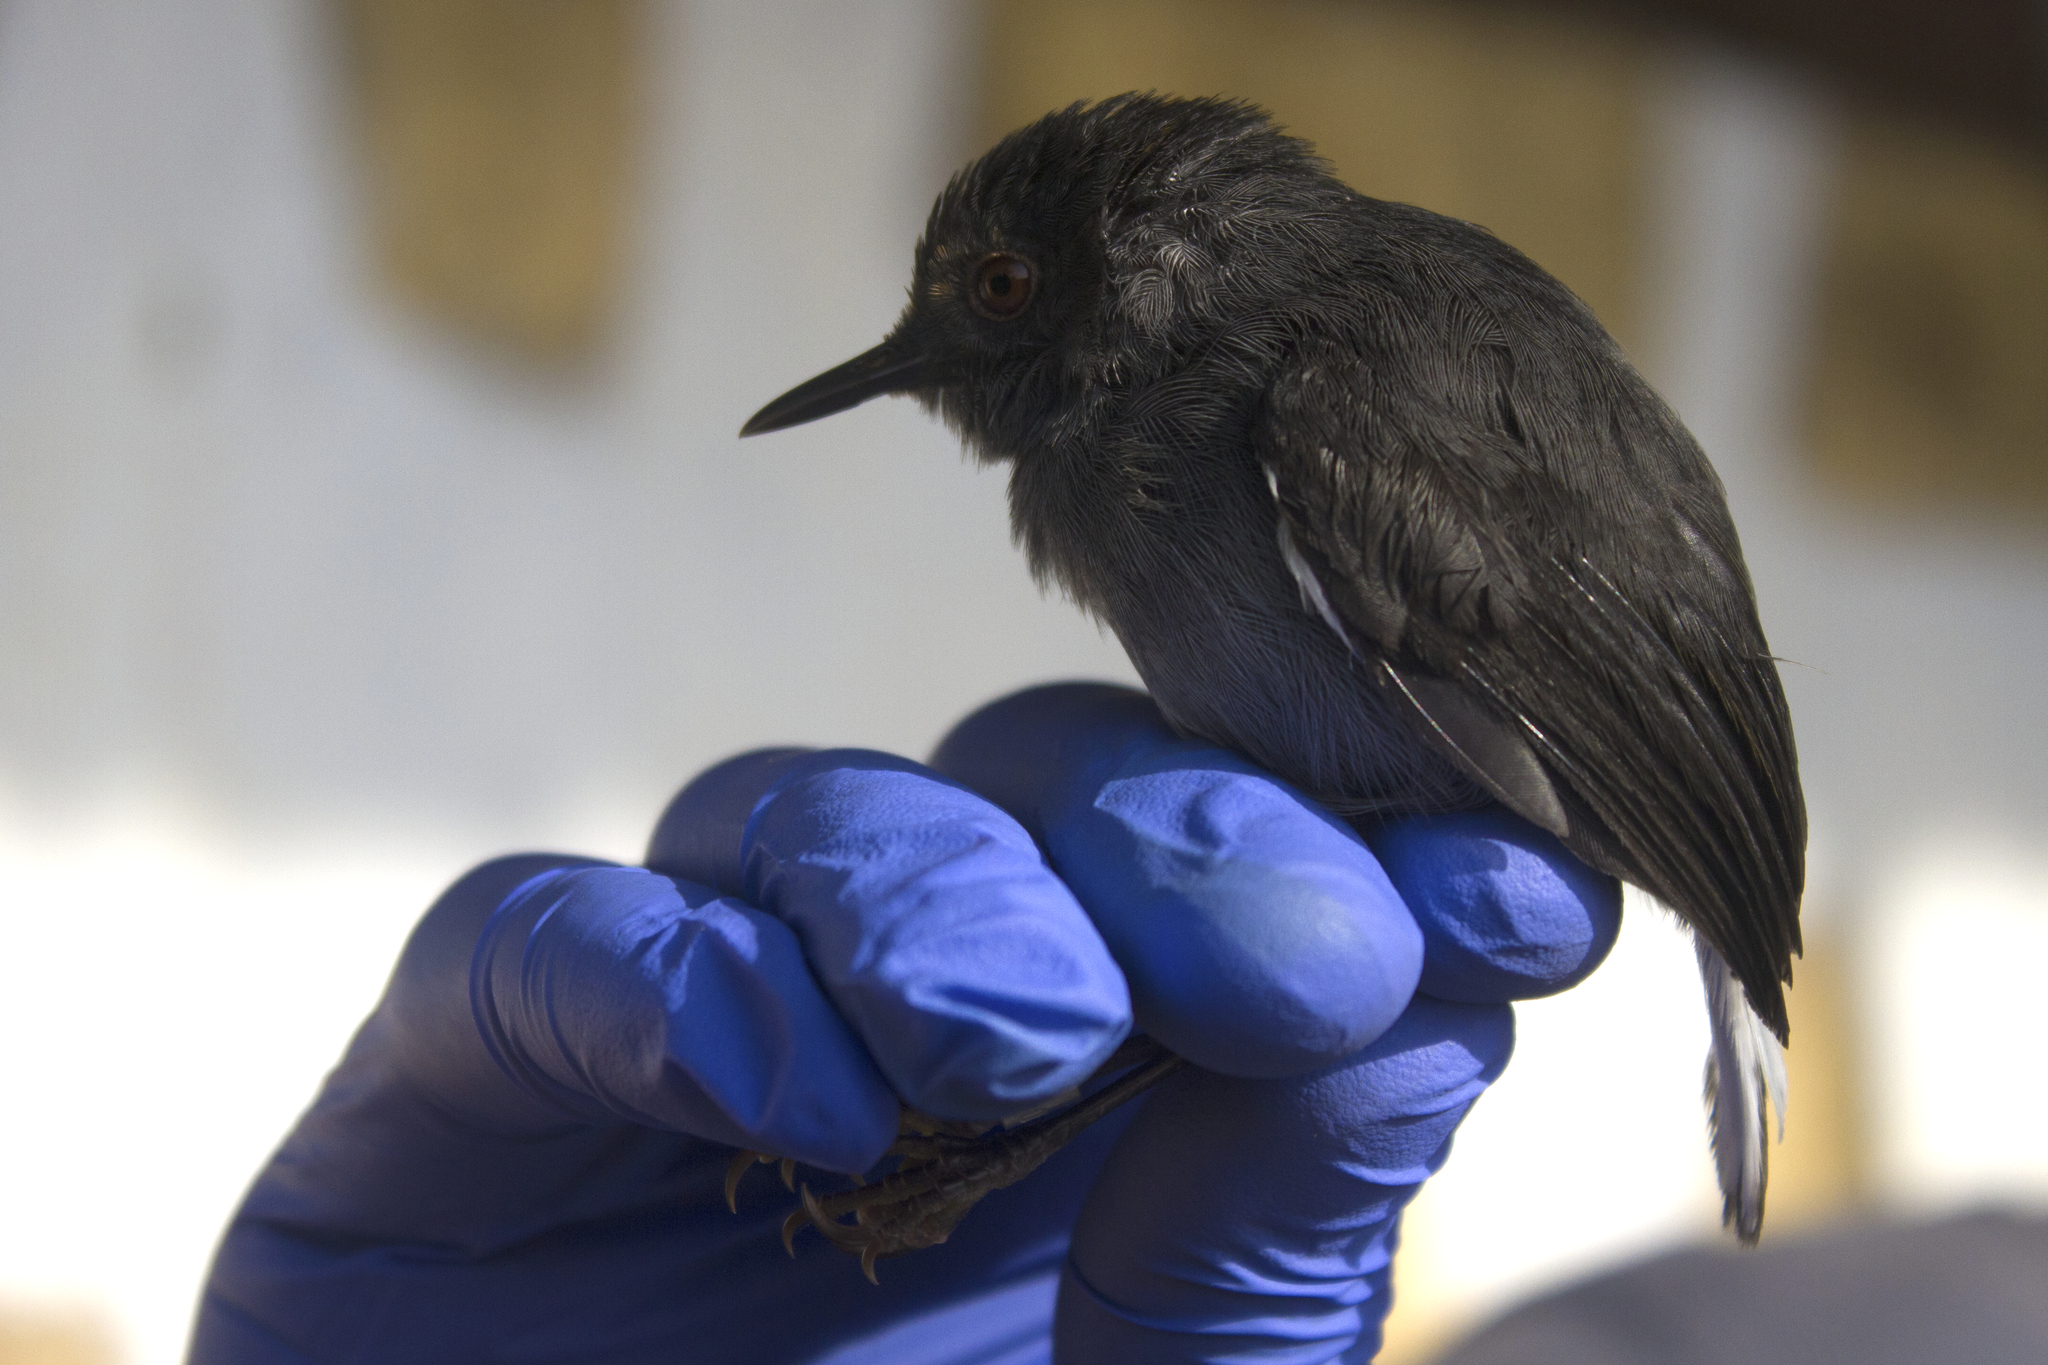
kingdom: Animalia
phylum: Chordata
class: Aves
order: Passeriformes
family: Cisticolidae
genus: Poliolais
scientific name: Poliolais lopezi
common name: White-tailed warbler
